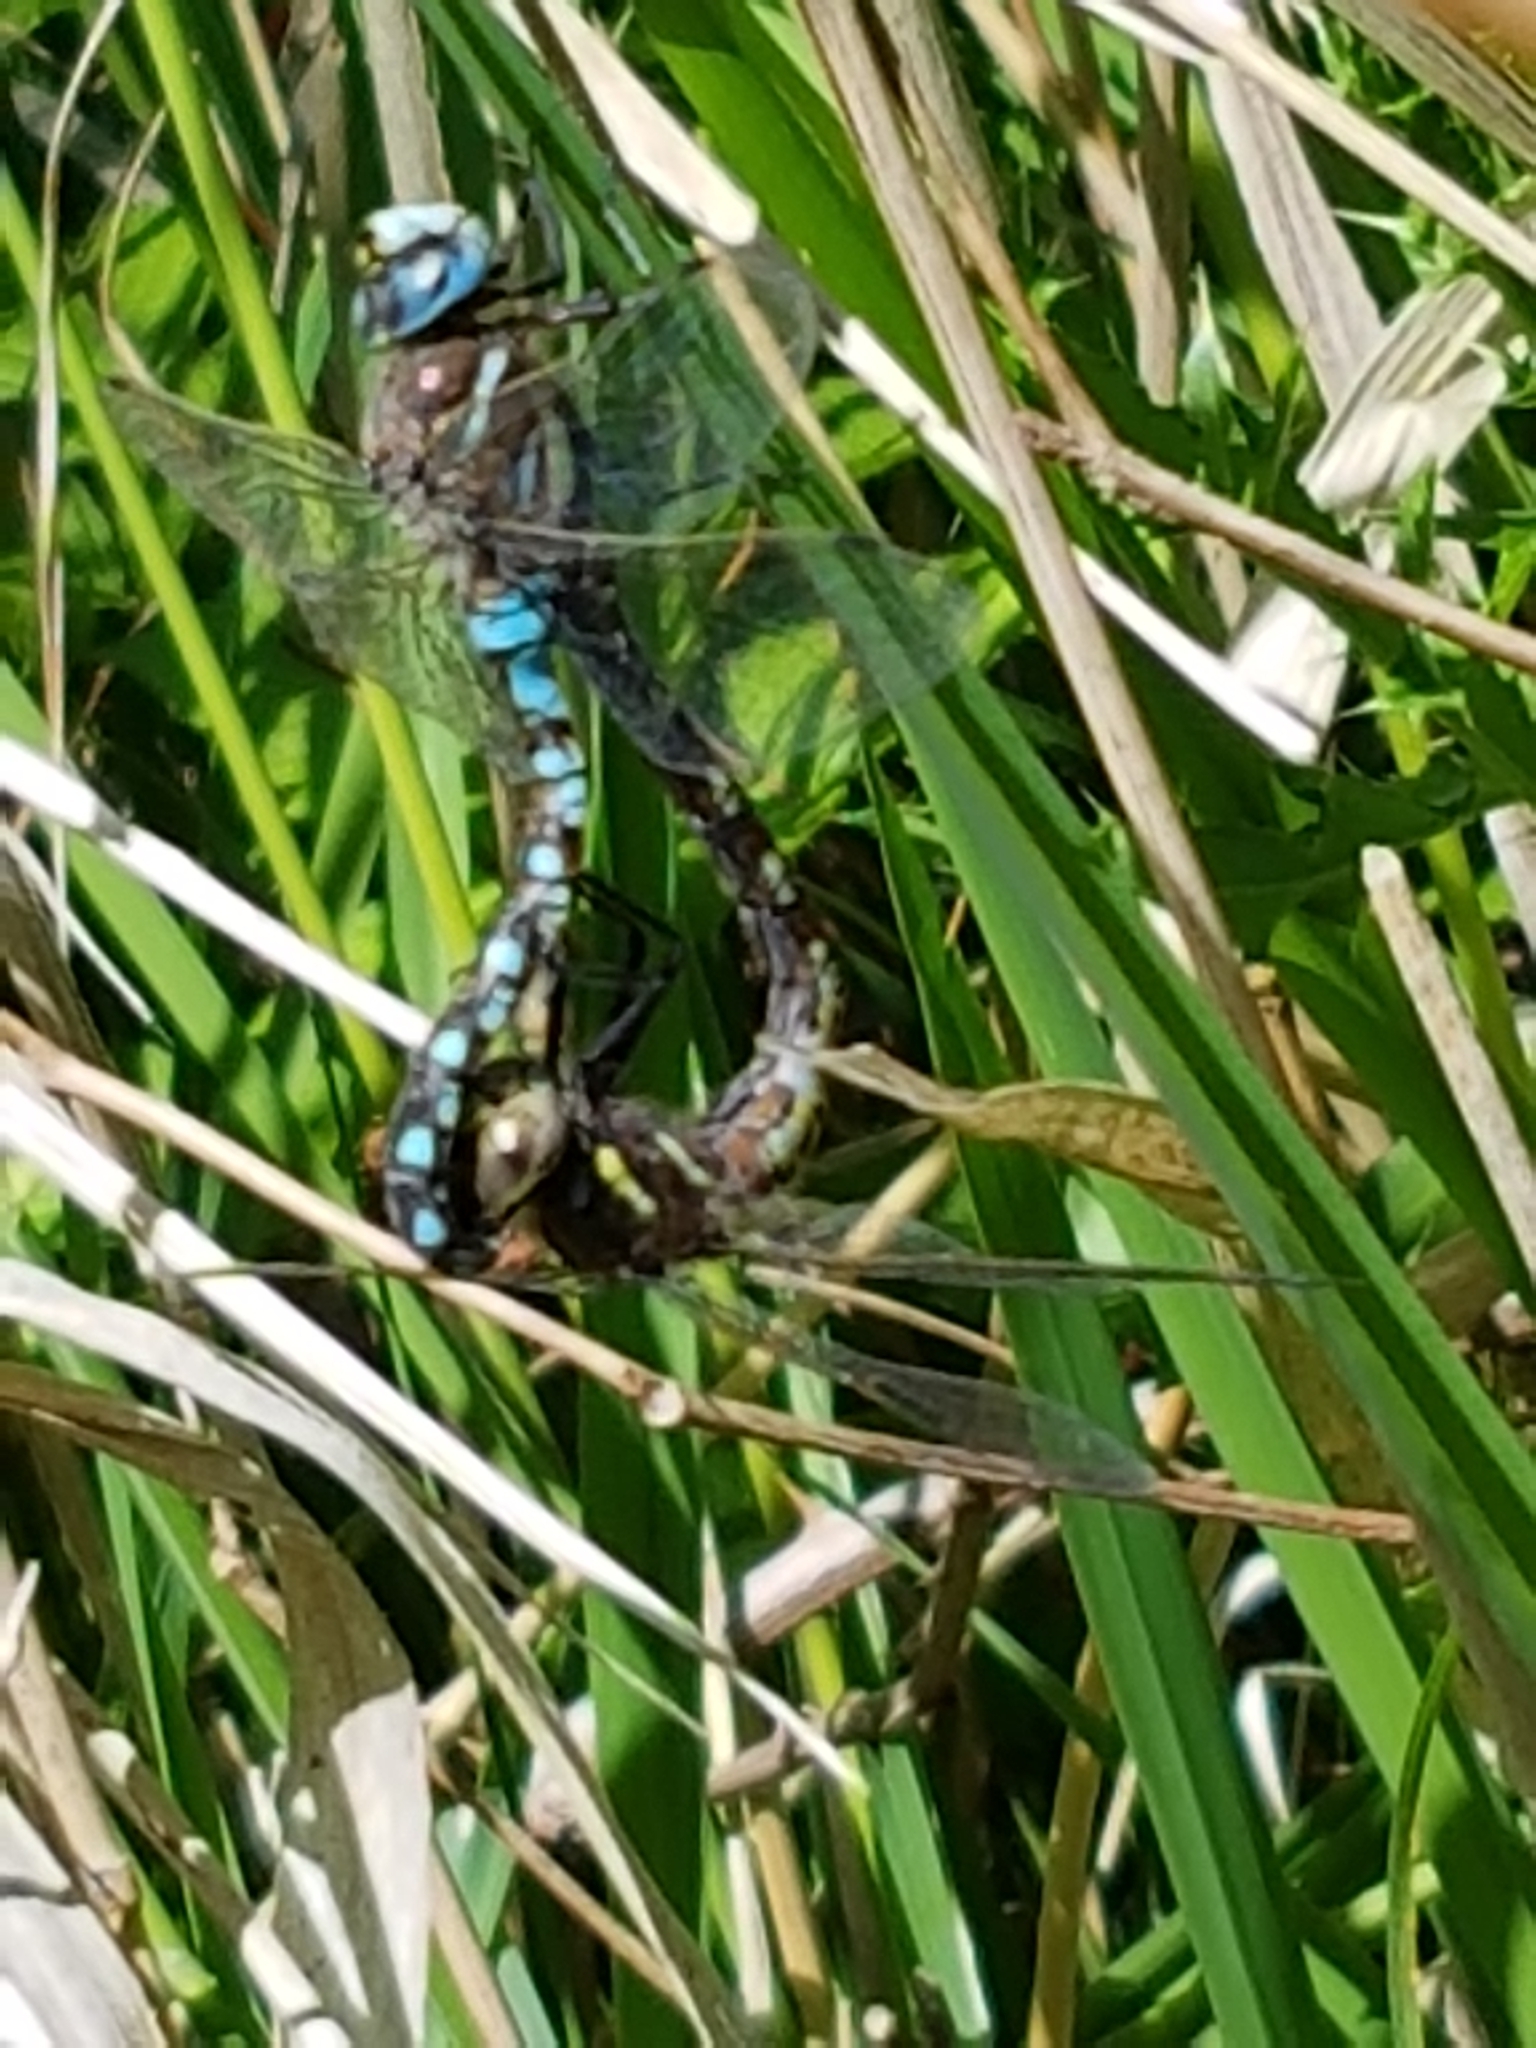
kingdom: Animalia
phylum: Arthropoda
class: Insecta
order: Odonata
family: Aeshnidae
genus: Rhionaeschna
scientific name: Rhionaeschna californica
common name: California darner
